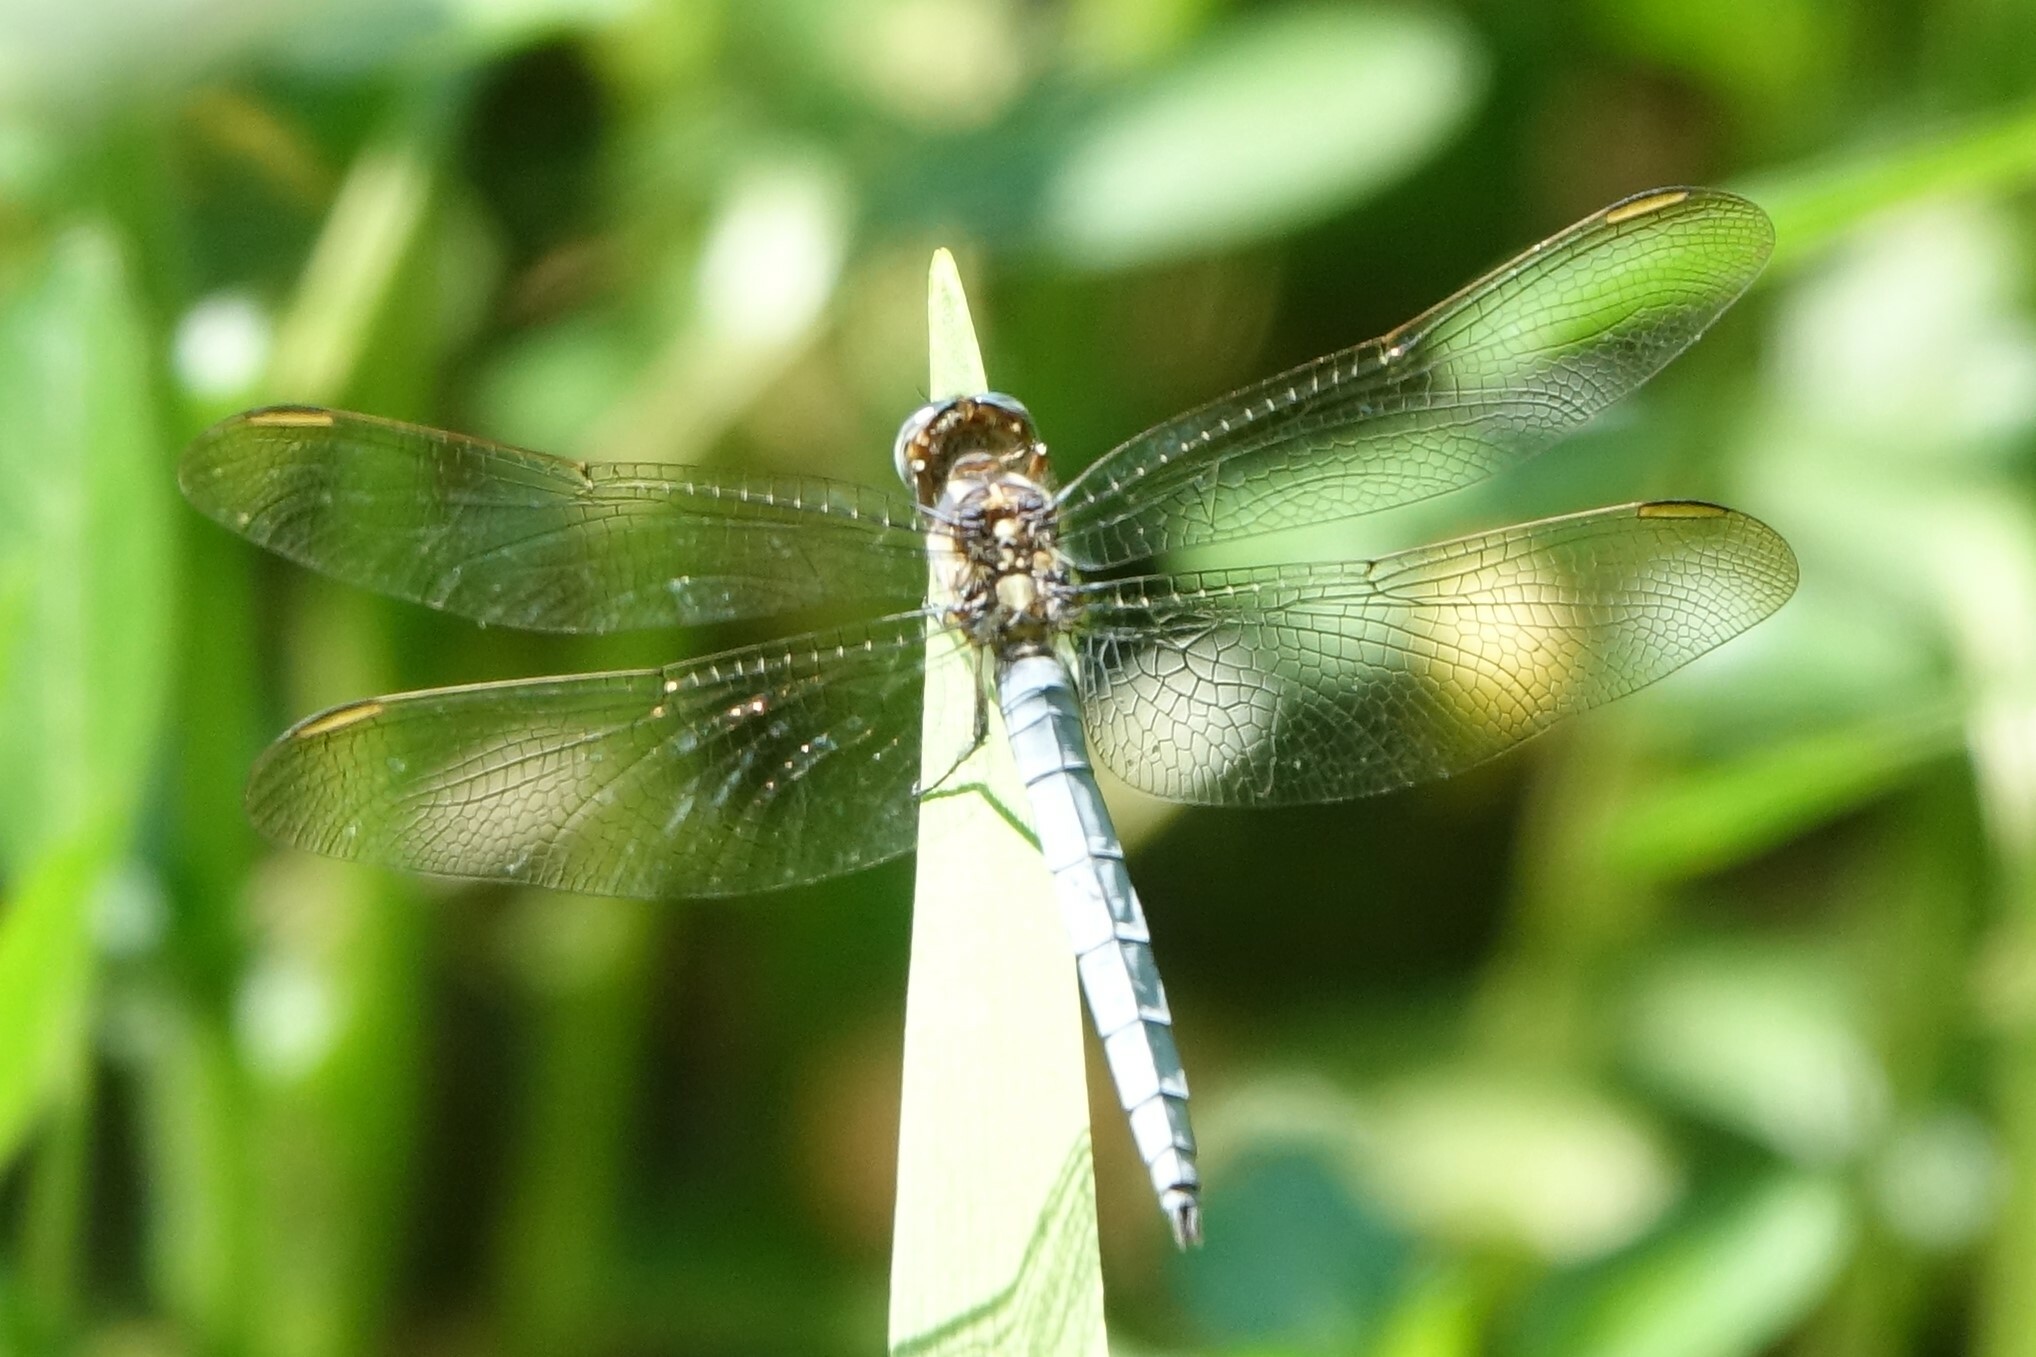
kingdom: Animalia
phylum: Arthropoda
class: Insecta
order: Odonata
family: Libellulidae
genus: Orthetrum
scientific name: Orthetrum coerulescens
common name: Keeled skimmer
